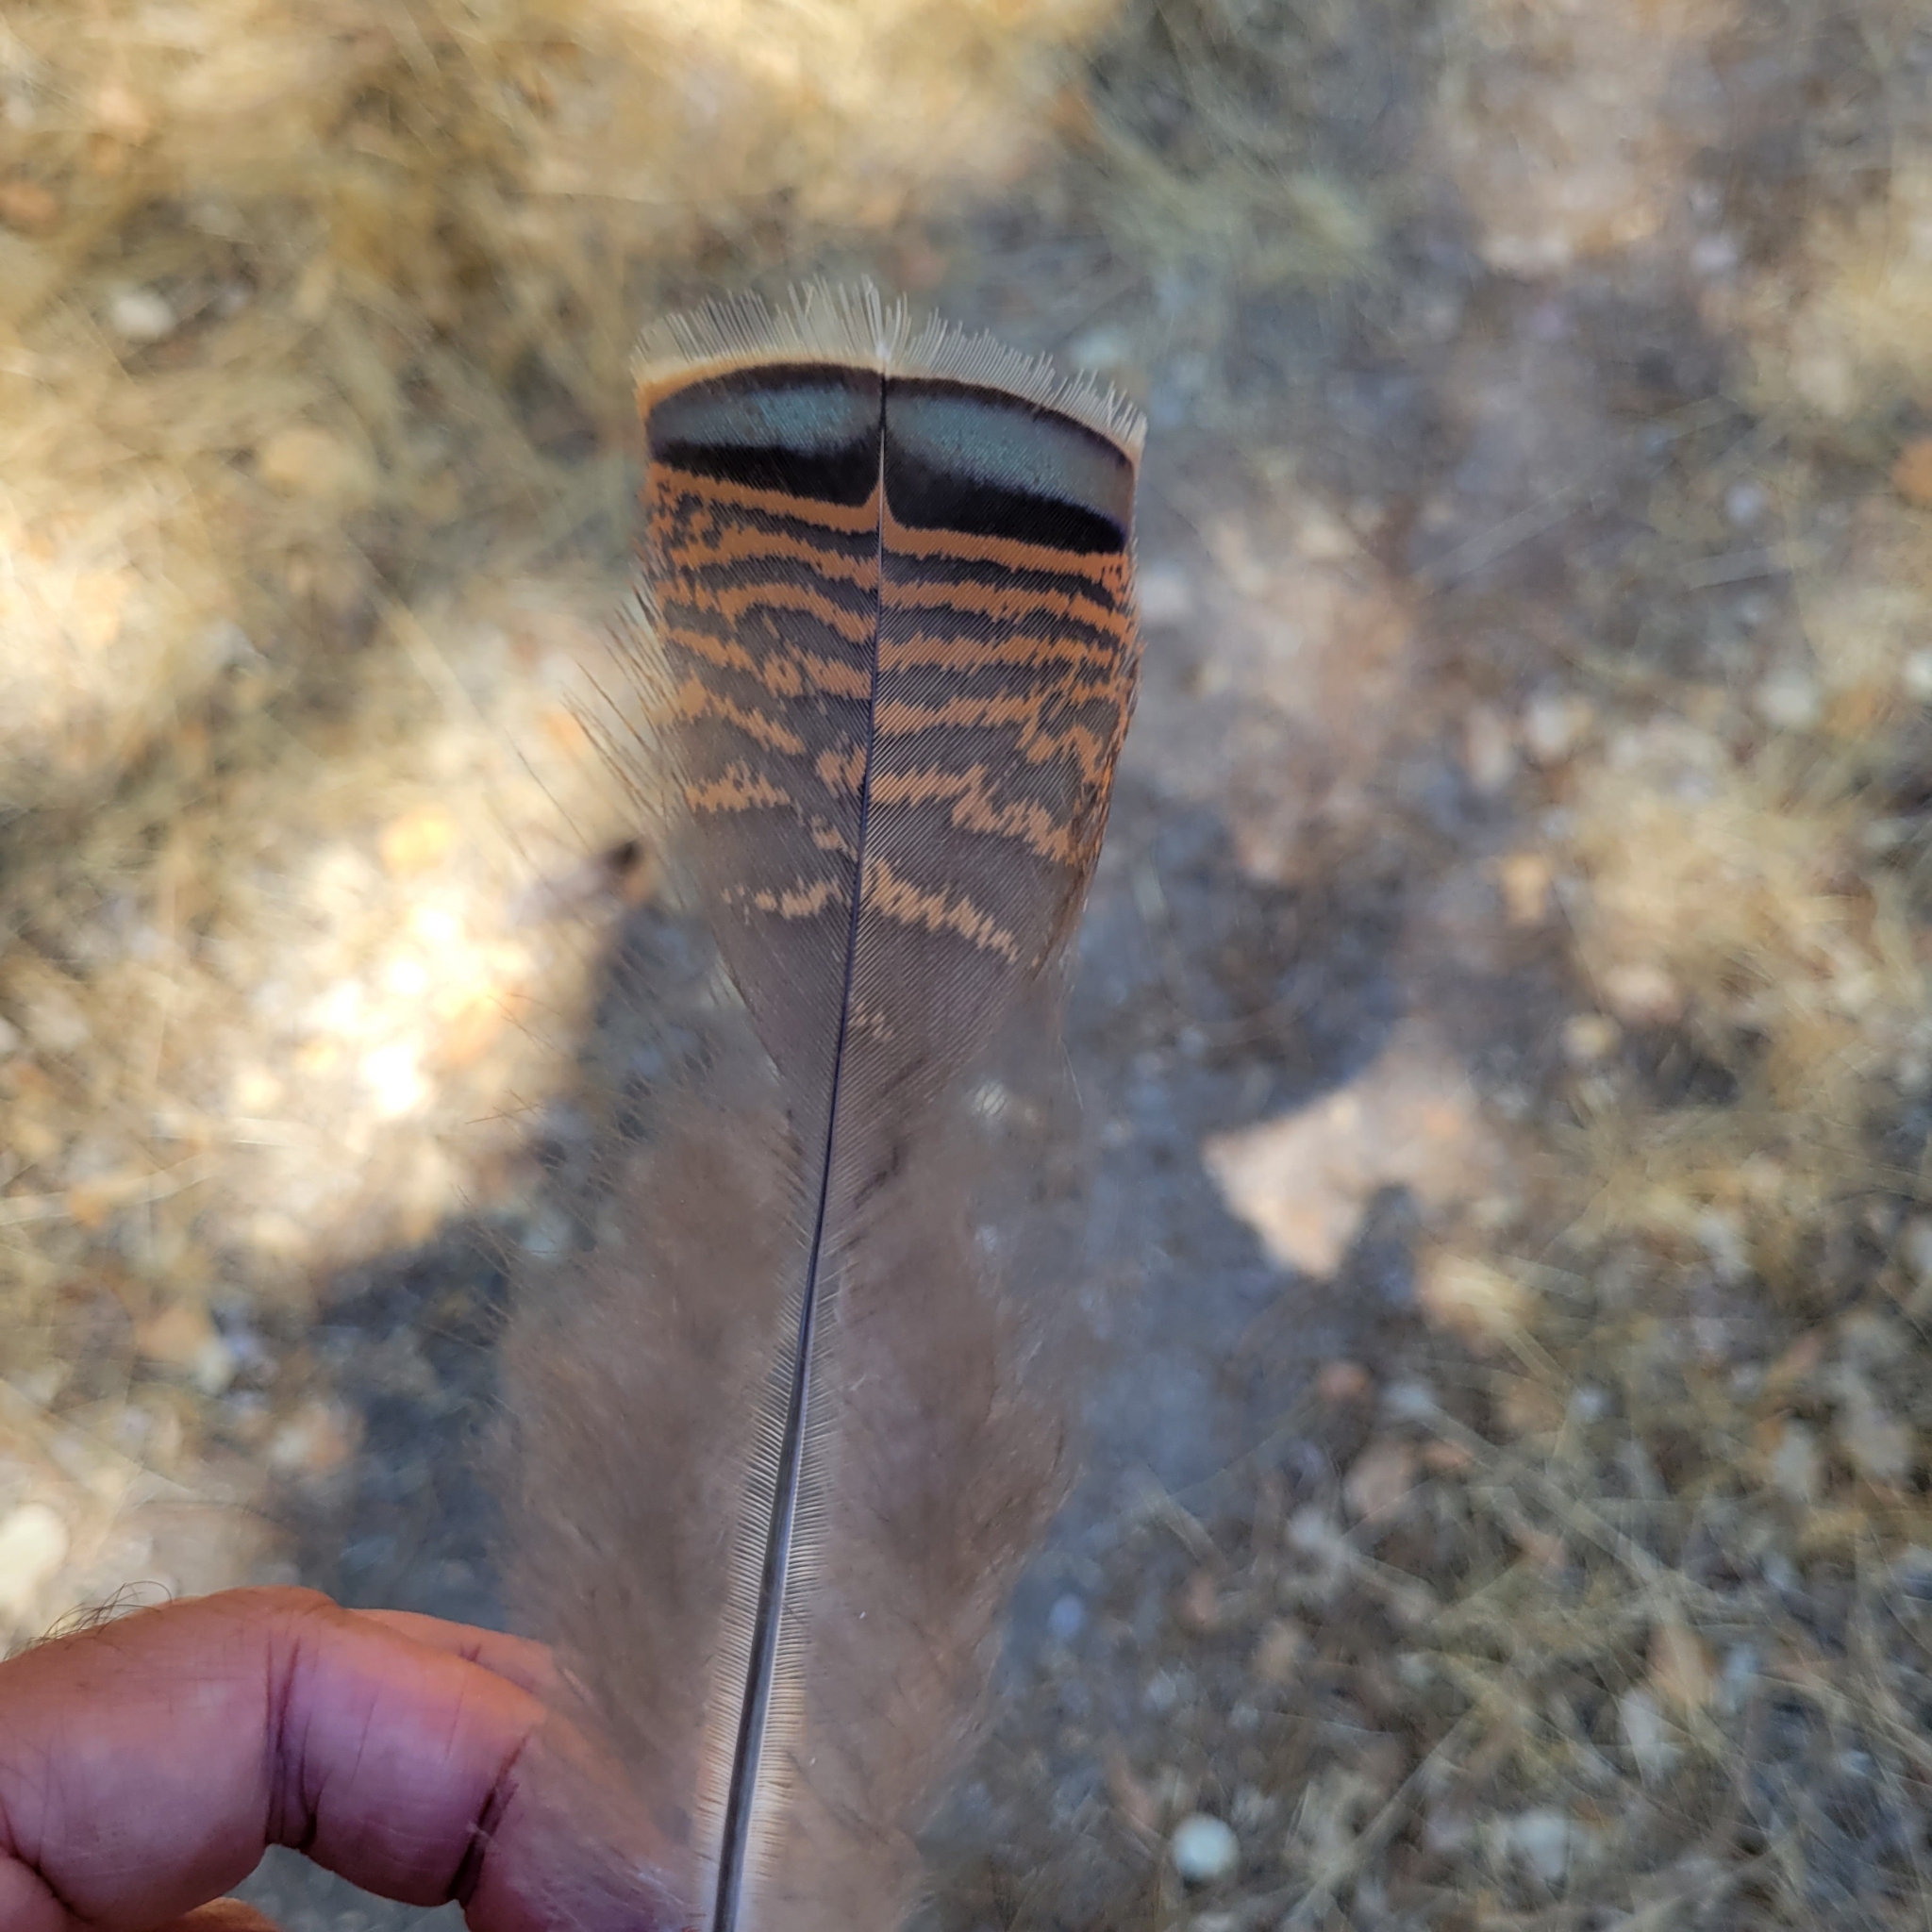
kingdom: Animalia
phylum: Chordata
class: Aves
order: Galliformes
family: Phasianidae
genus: Meleagris
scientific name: Meleagris gallopavo
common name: Wild turkey
